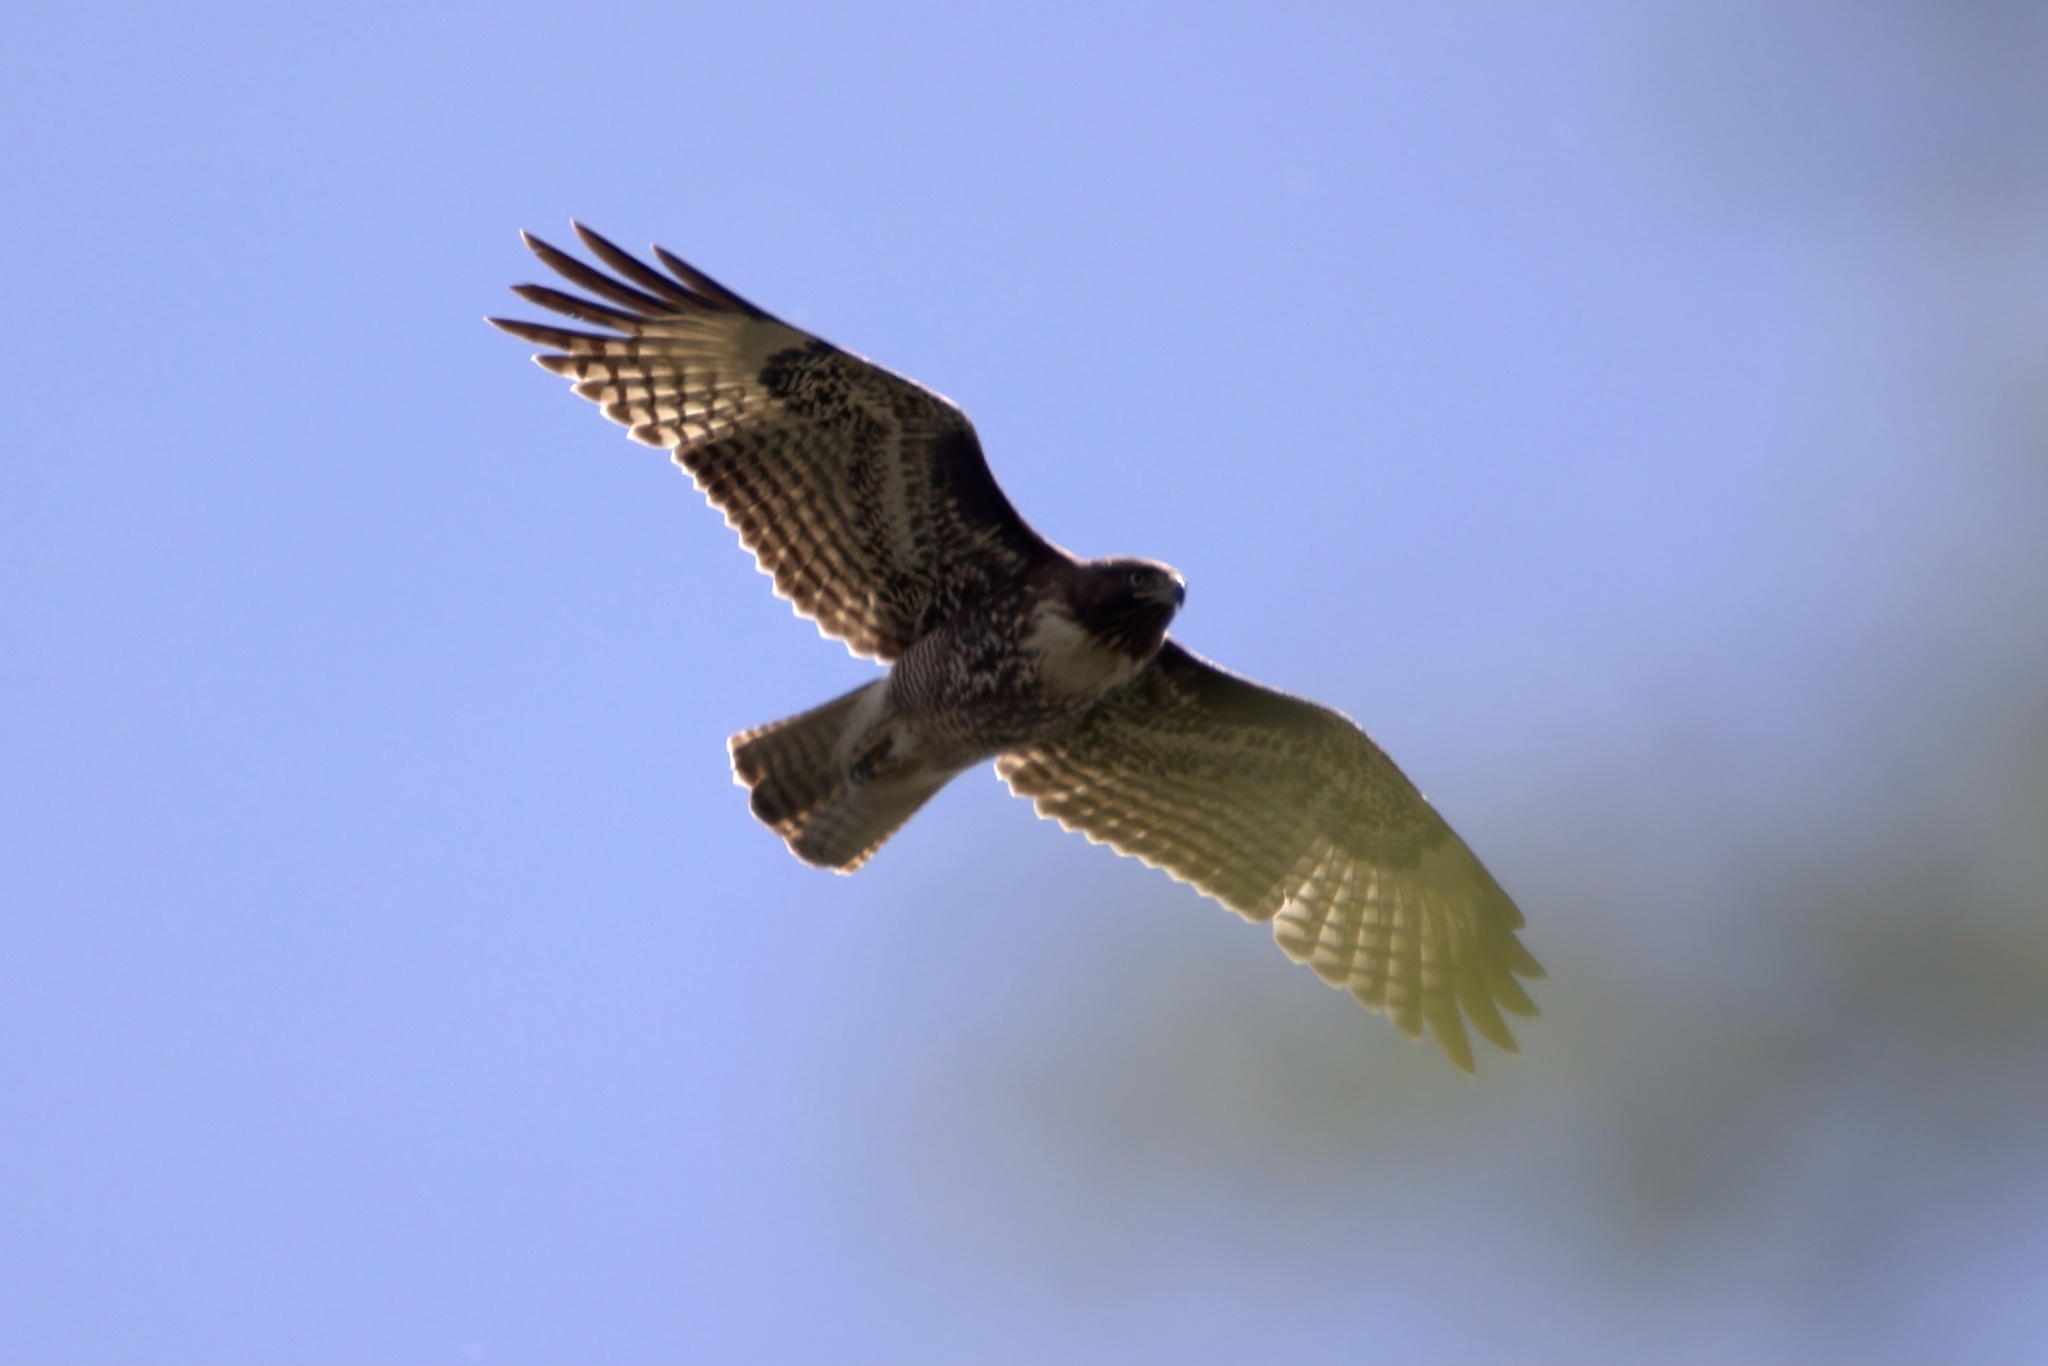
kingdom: Animalia
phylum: Chordata
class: Aves
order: Accipitriformes
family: Accipitridae
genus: Buteo
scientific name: Buteo jamaicensis
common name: Red-tailed hawk
